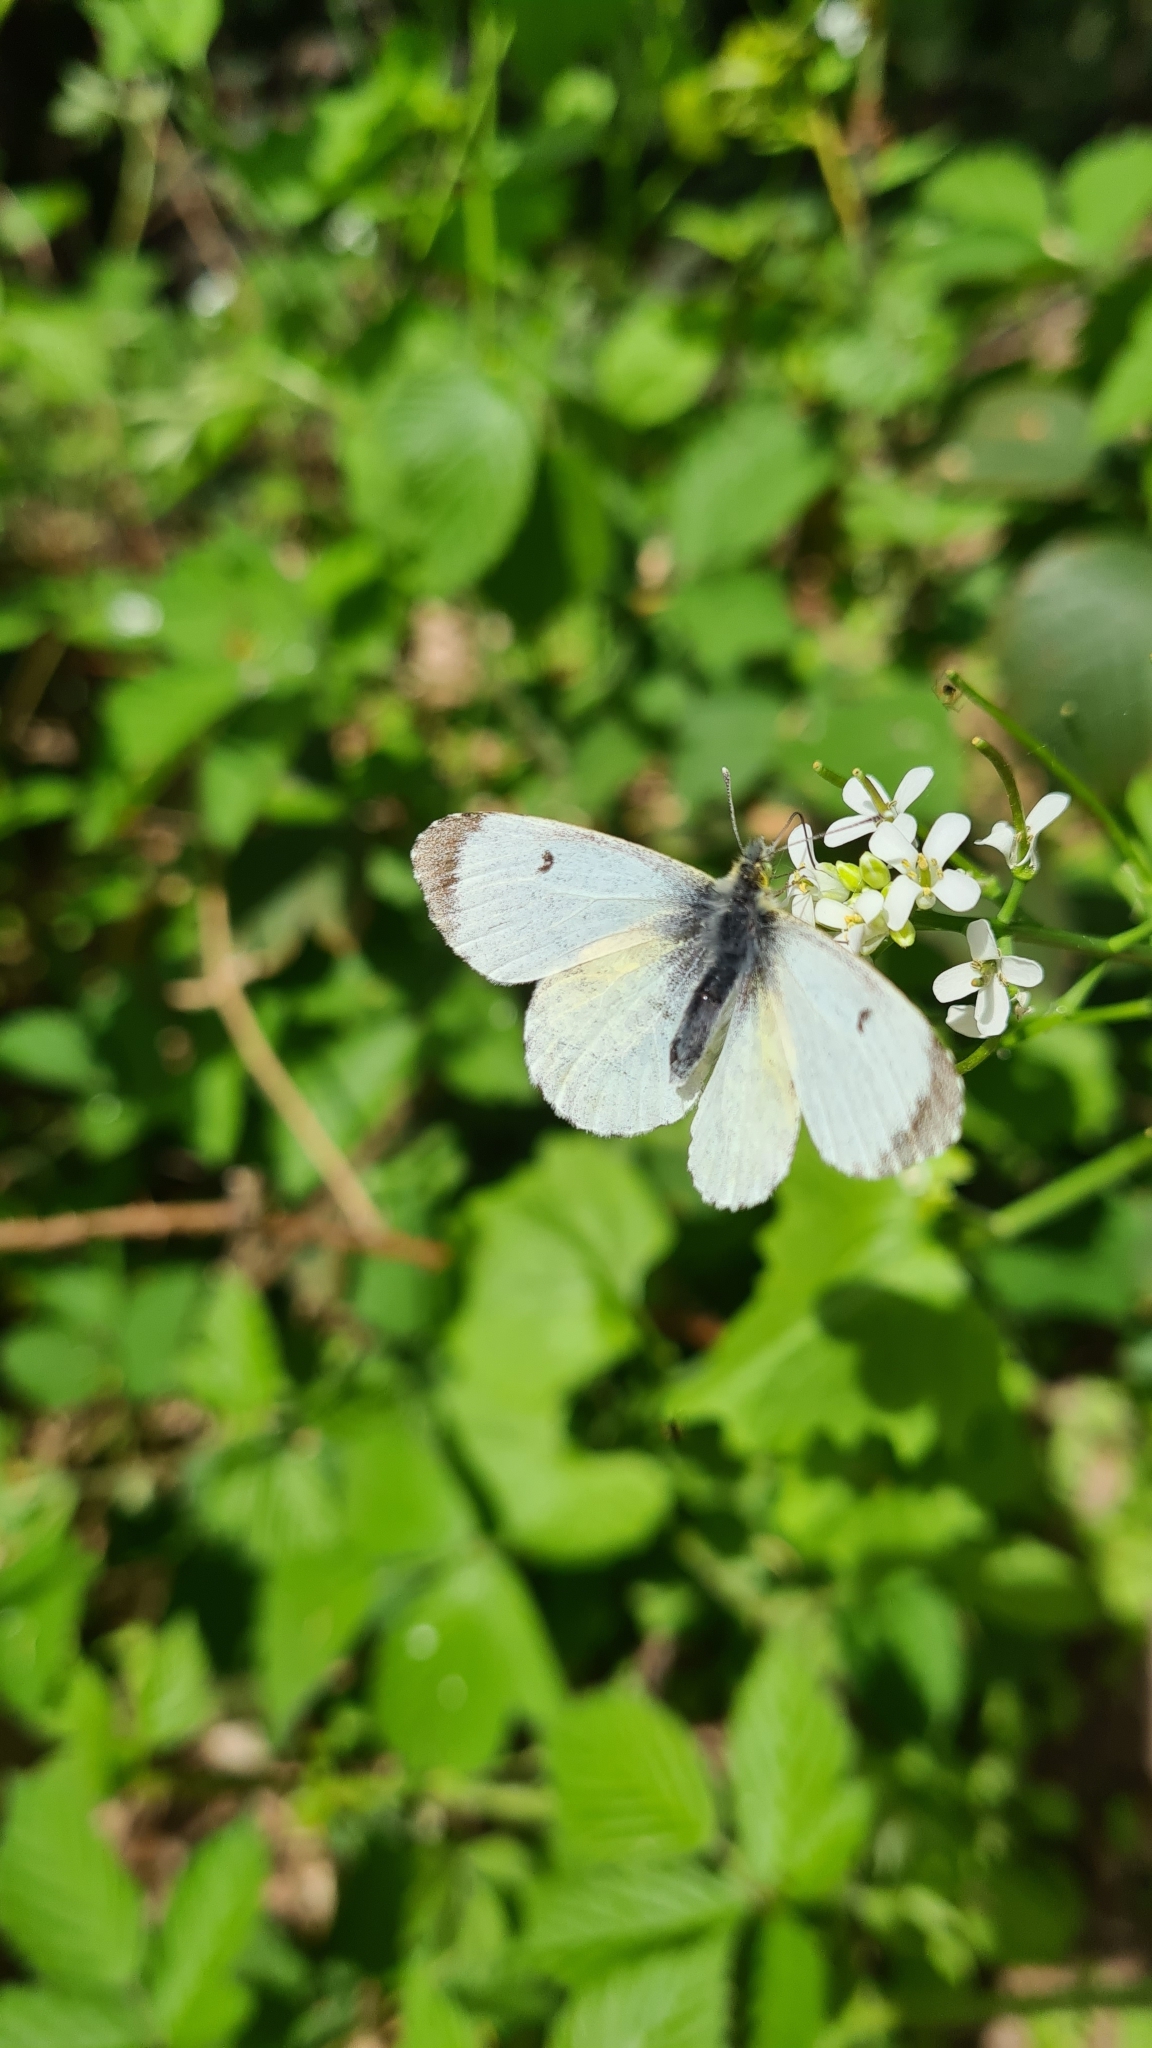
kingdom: Animalia
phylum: Arthropoda
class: Insecta
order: Lepidoptera
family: Pieridae
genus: Anthocharis
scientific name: Anthocharis cardamines
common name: Orange-tip
